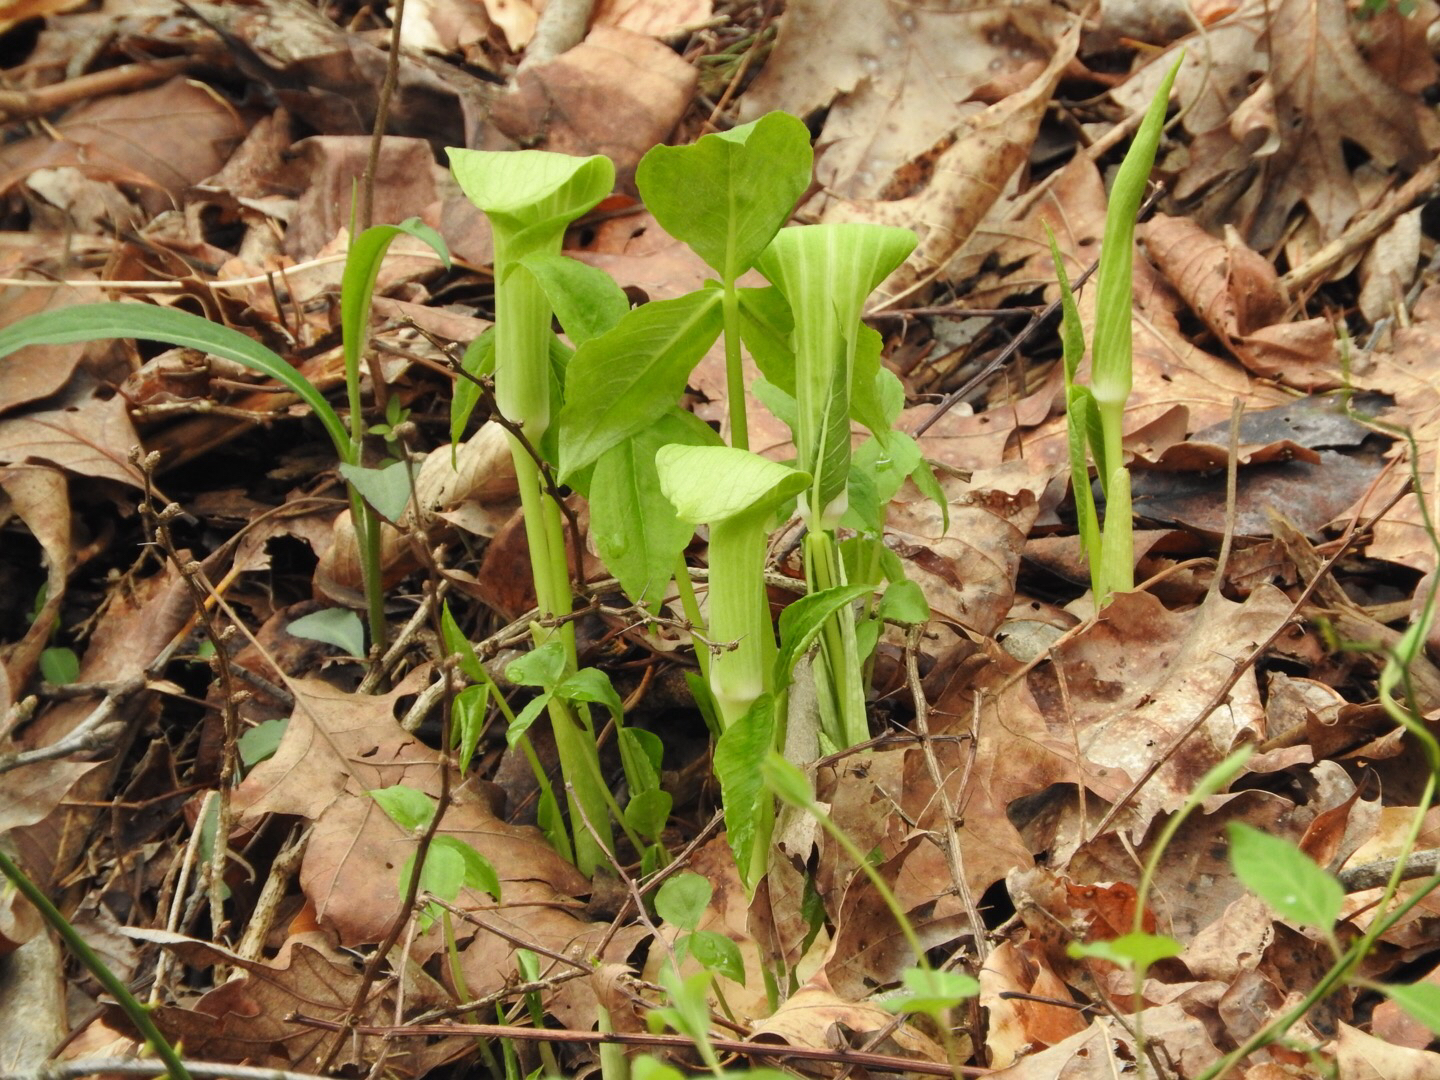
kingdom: Plantae
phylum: Tracheophyta
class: Liliopsida
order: Alismatales
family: Araceae
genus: Arisaema
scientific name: Arisaema triphyllum
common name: Jack-in-the-pulpit
